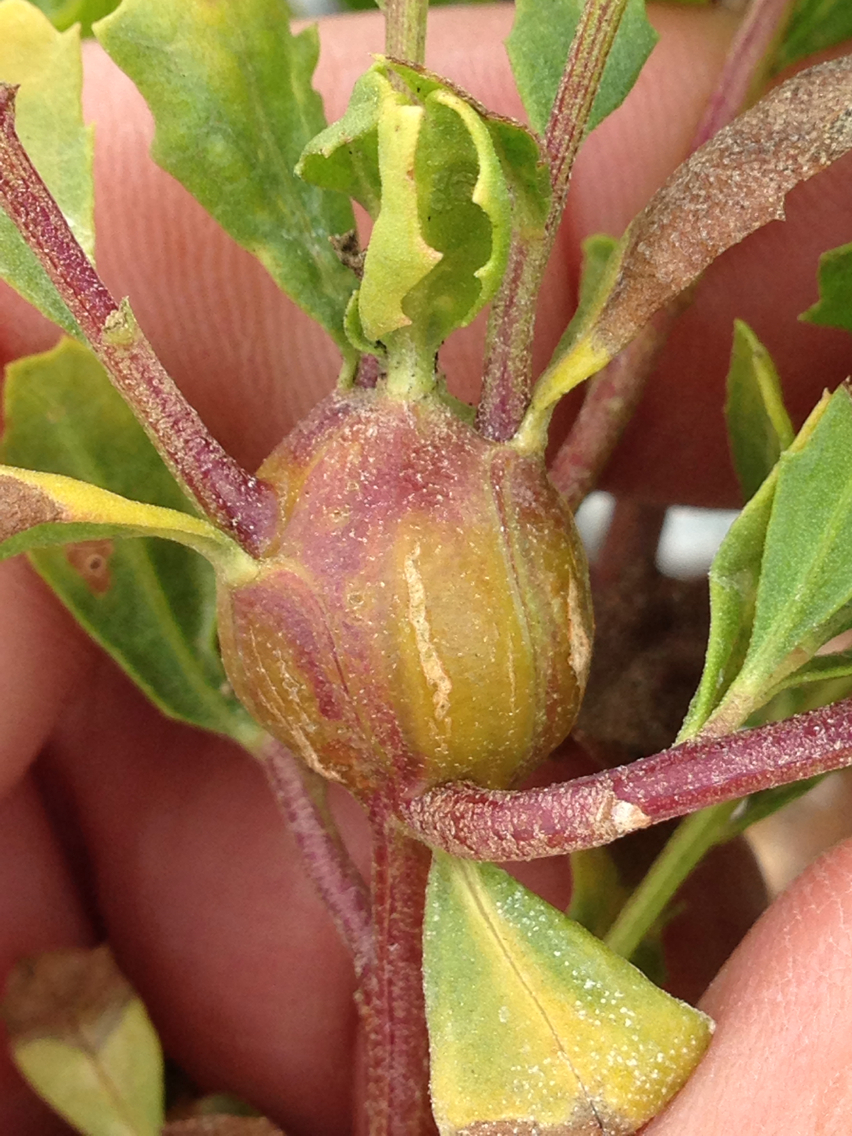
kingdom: Animalia
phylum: Arthropoda
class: Insecta
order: Lepidoptera
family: Gelechiidae
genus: Gnorimoschema
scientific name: Gnorimoschema baccharisella
